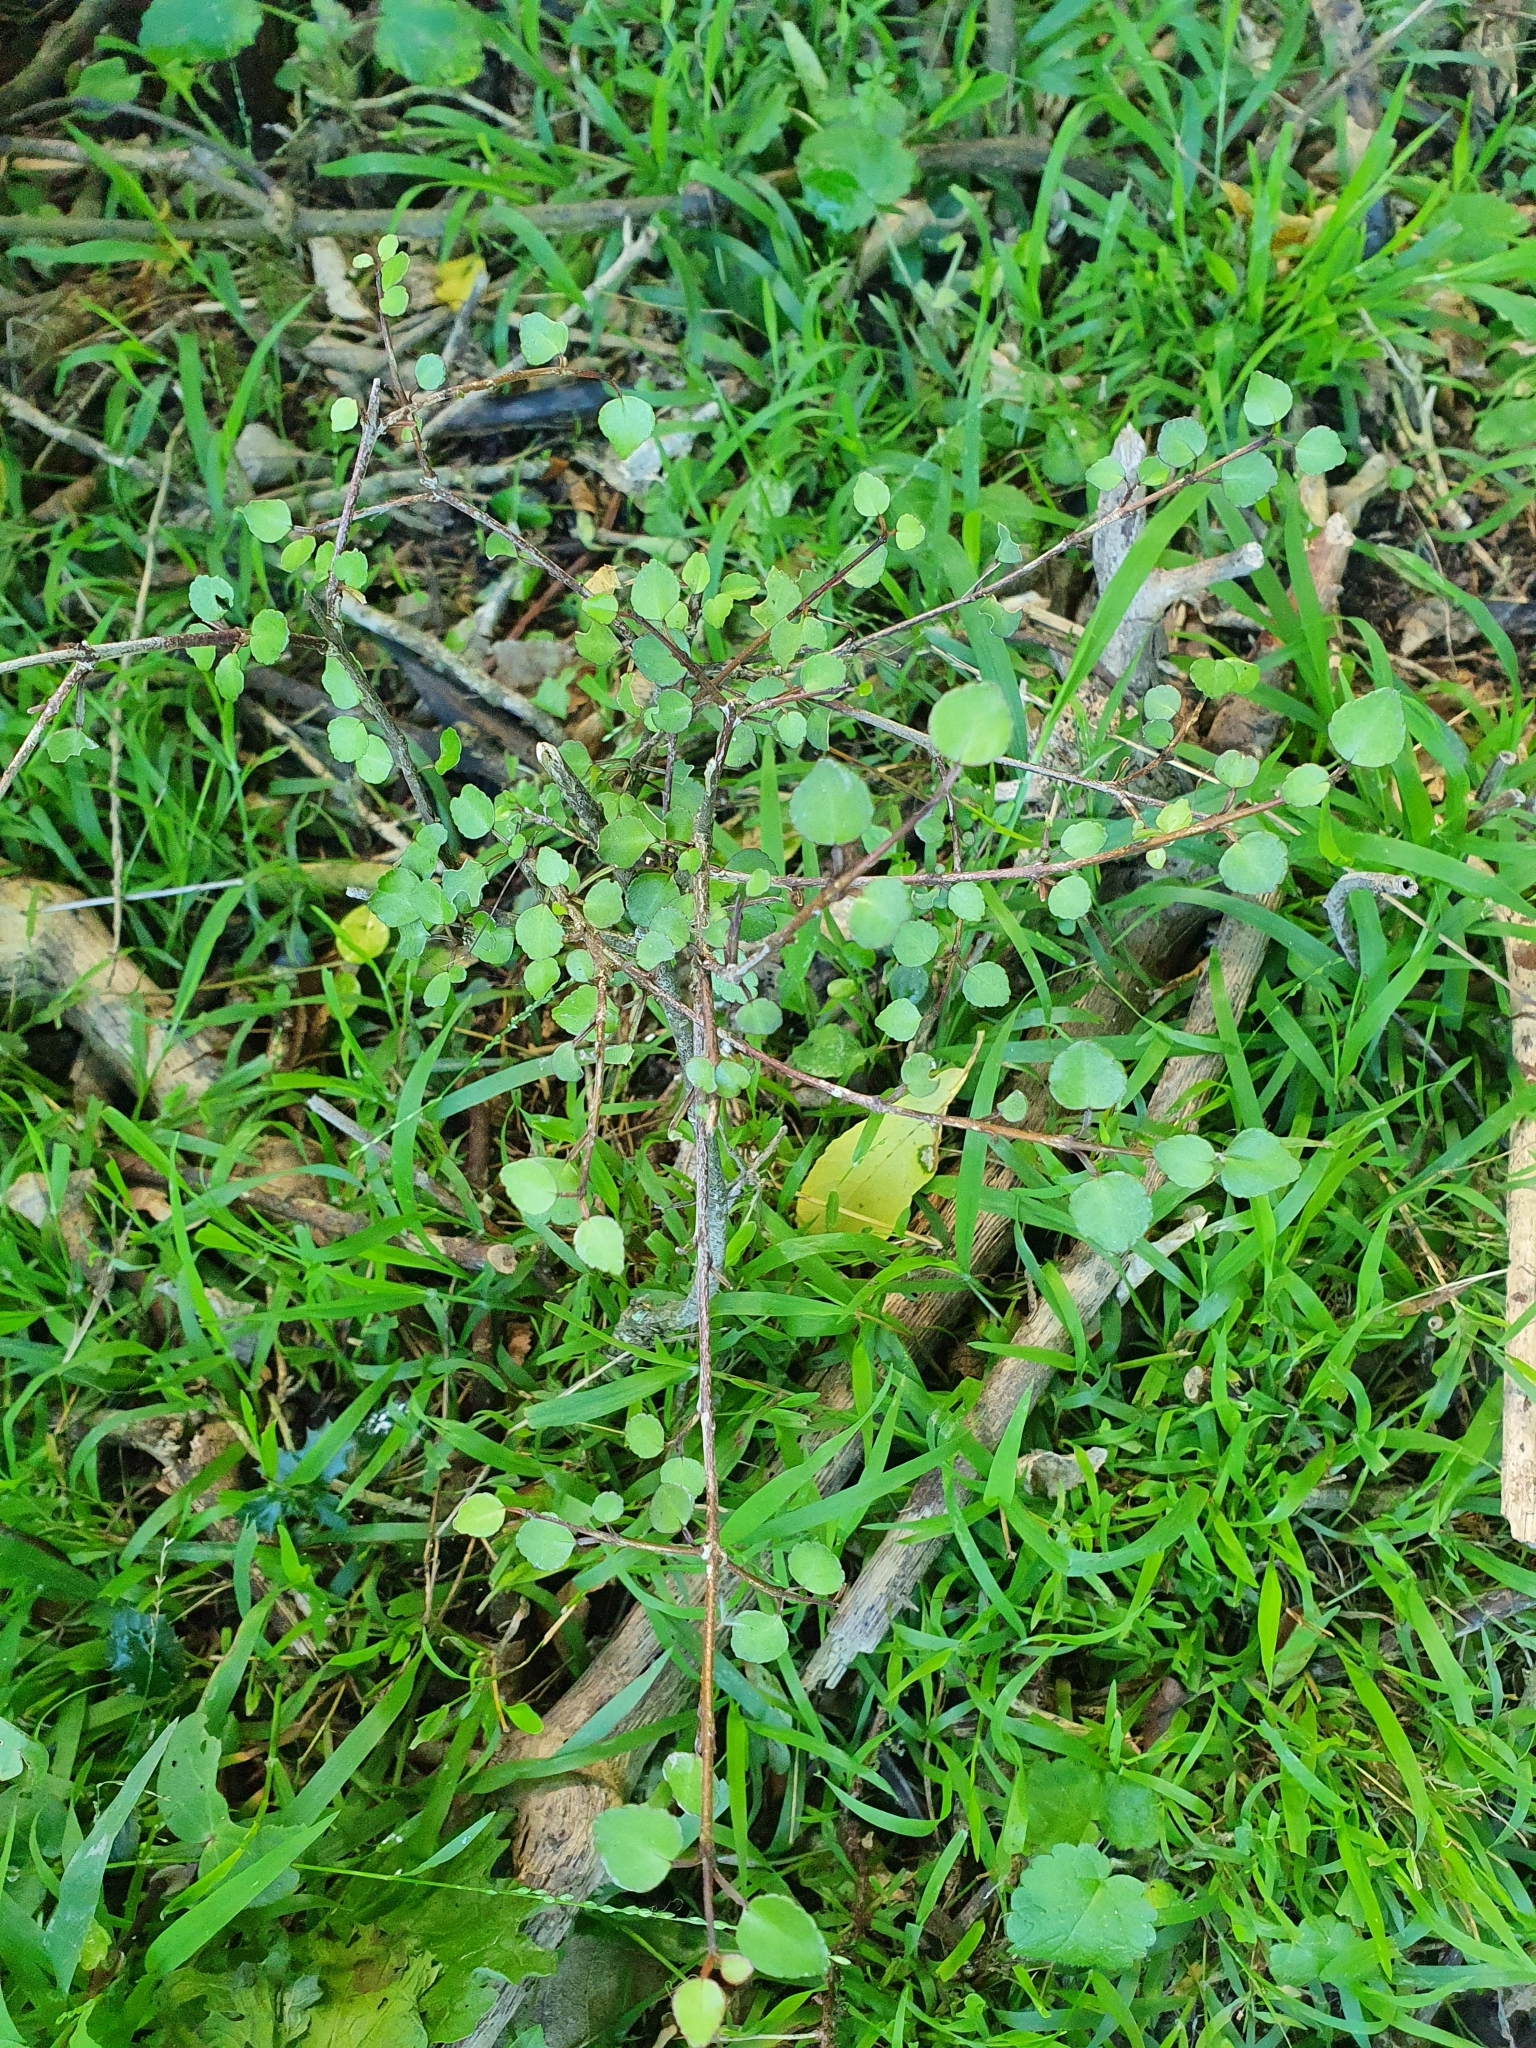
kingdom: Plantae
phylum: Tracheophyta
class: Magnoliopsida
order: Sapindales
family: Rutaceae
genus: Melicope
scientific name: Melicope simplex
